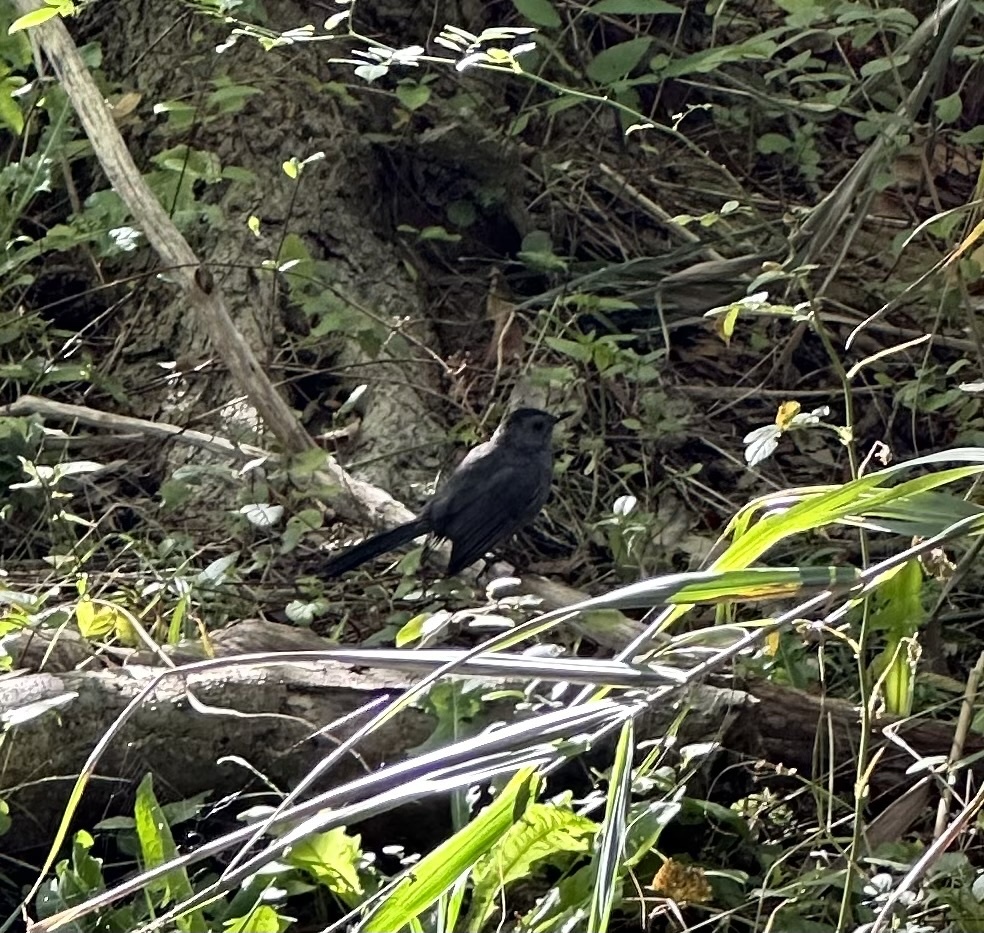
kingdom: Animalia
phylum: Chordata
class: Aves
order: Passeriformes
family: Mimidae
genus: Dumetella
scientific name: Dumetella carolinensis
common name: Gray catbird
